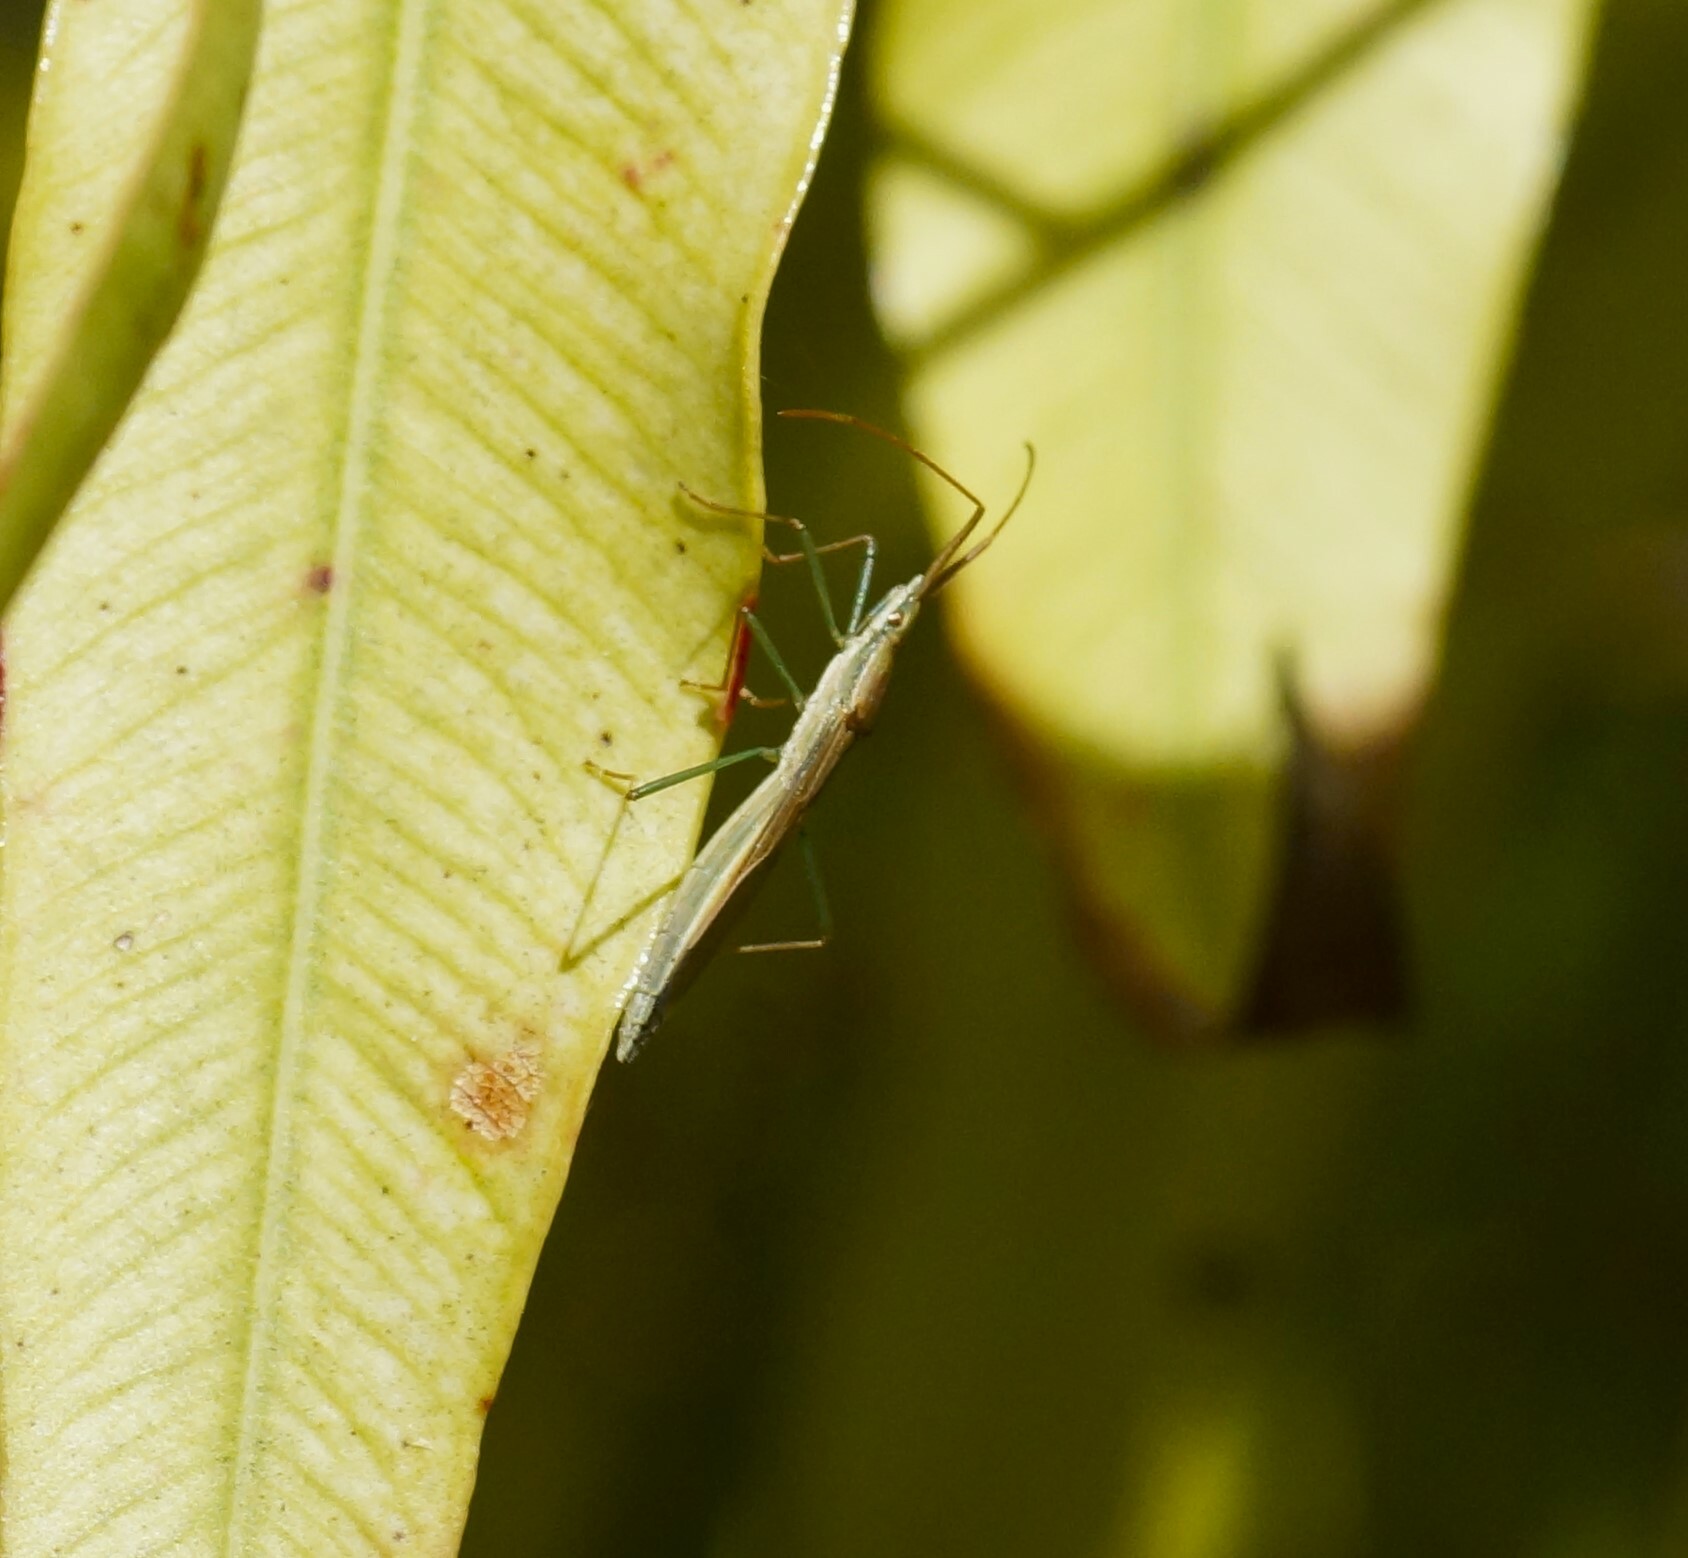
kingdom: Animalia
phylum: Arthropoda
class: Insecta
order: Hemiptera
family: Alydidae
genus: Mutusca
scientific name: Mutusca brevicornis
